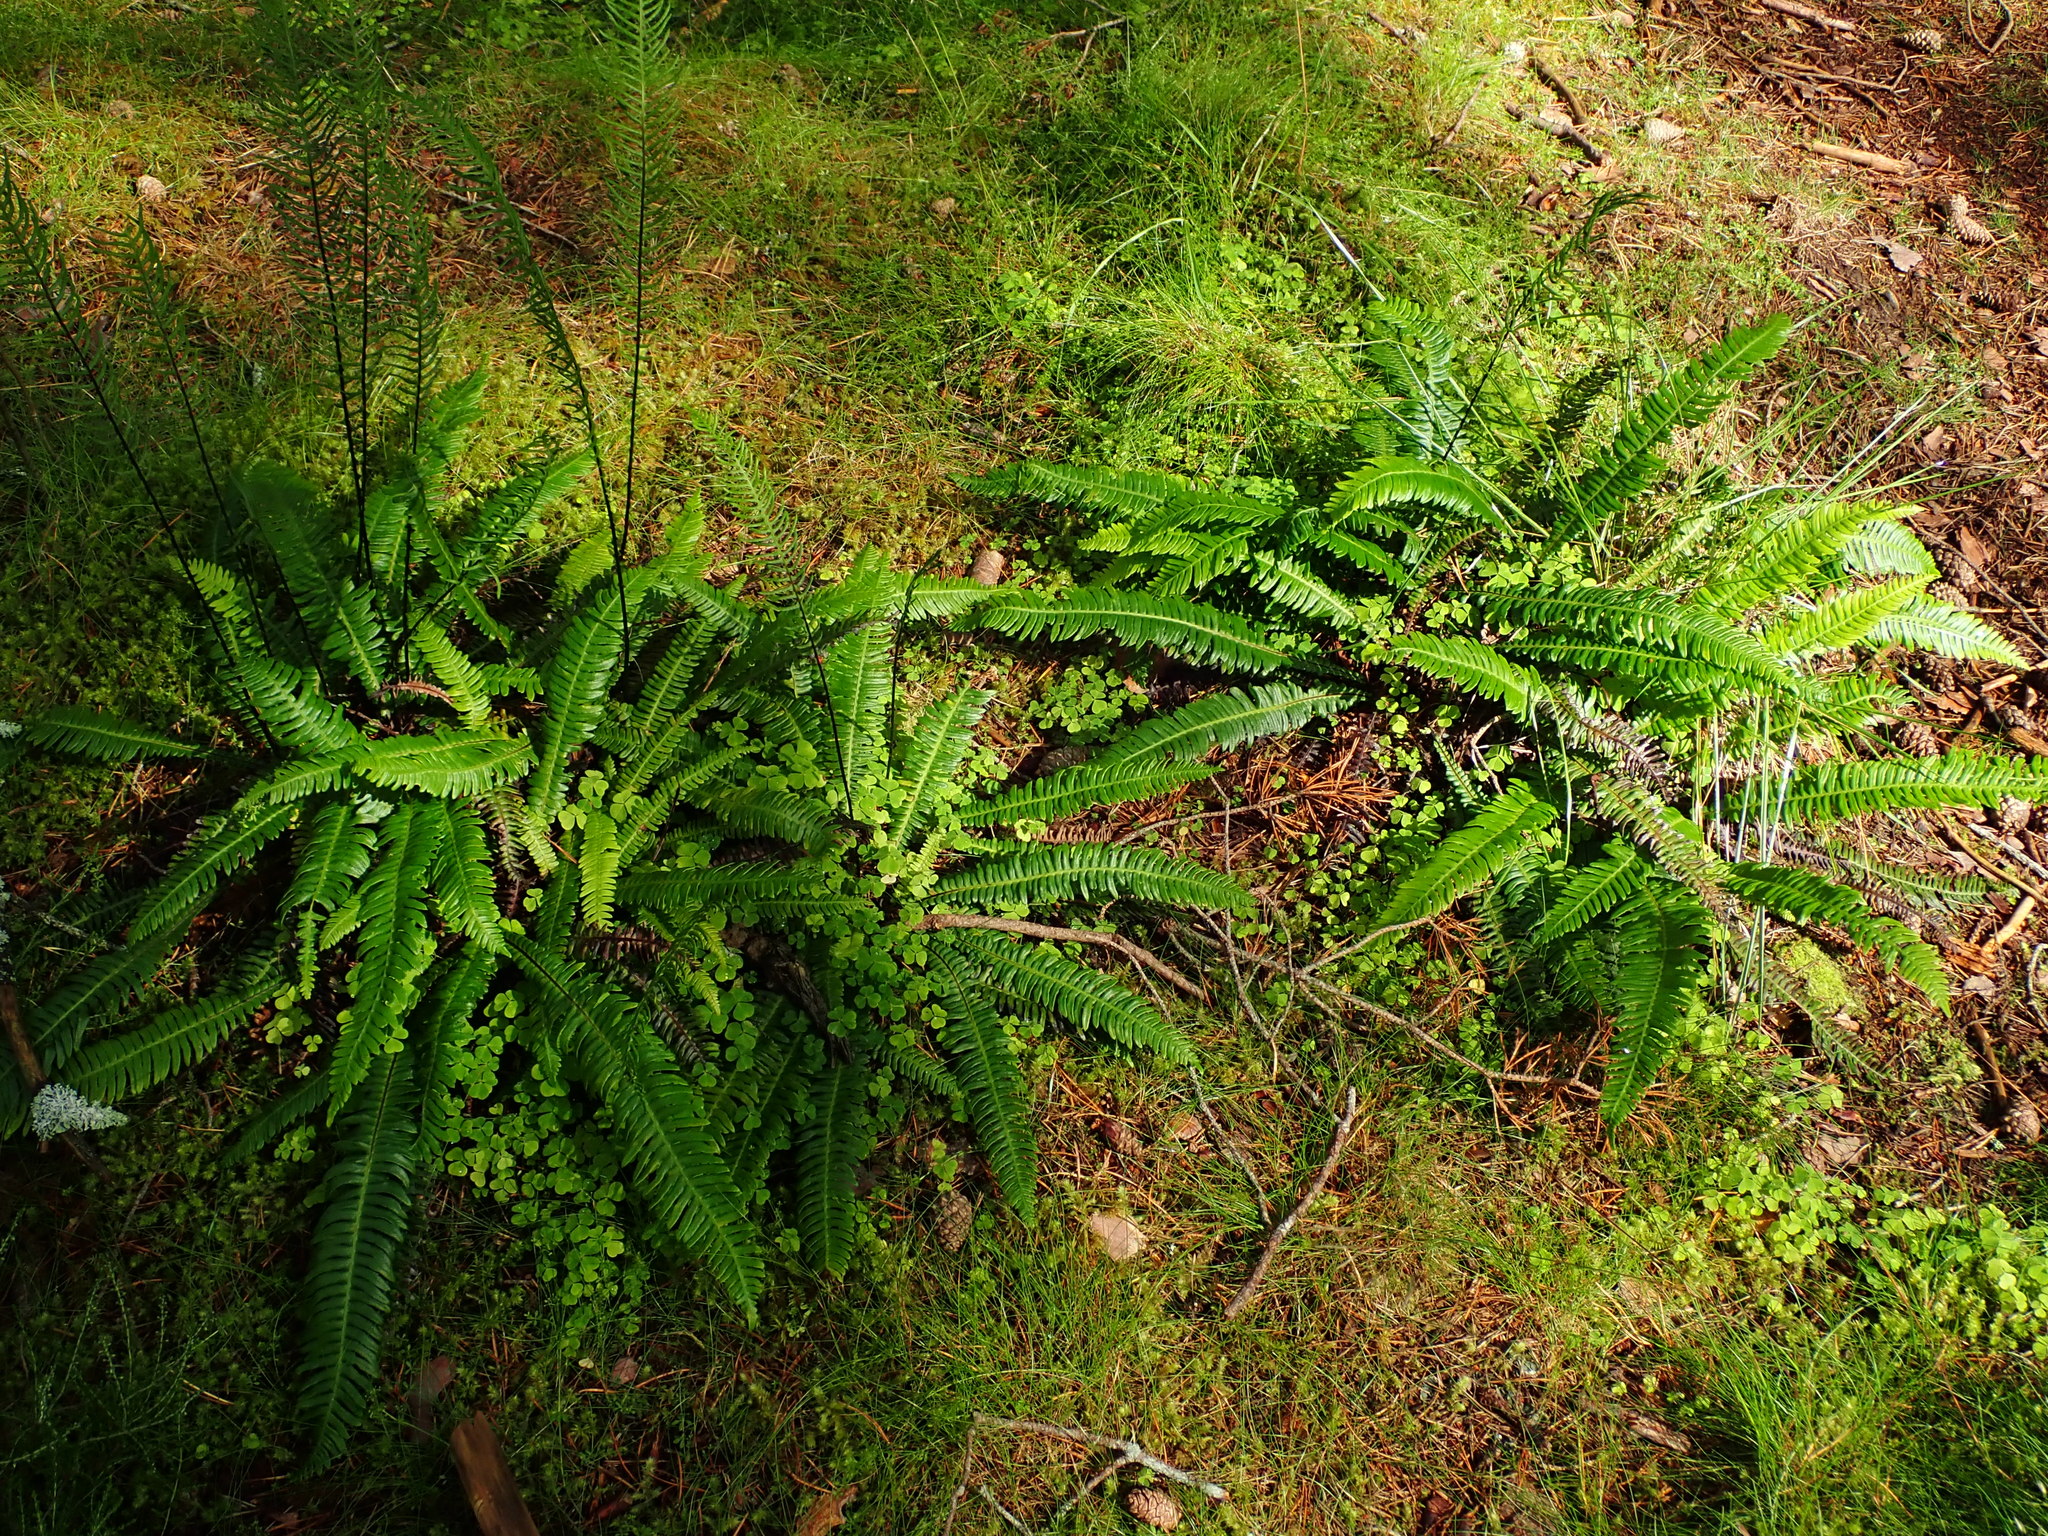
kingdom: Plantae
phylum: Tracheophyta
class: Polypodiopsida
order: Polypodiales
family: Blechnaceae
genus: Struthiopteris
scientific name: Struthiopteris spicant
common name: Deer fern
